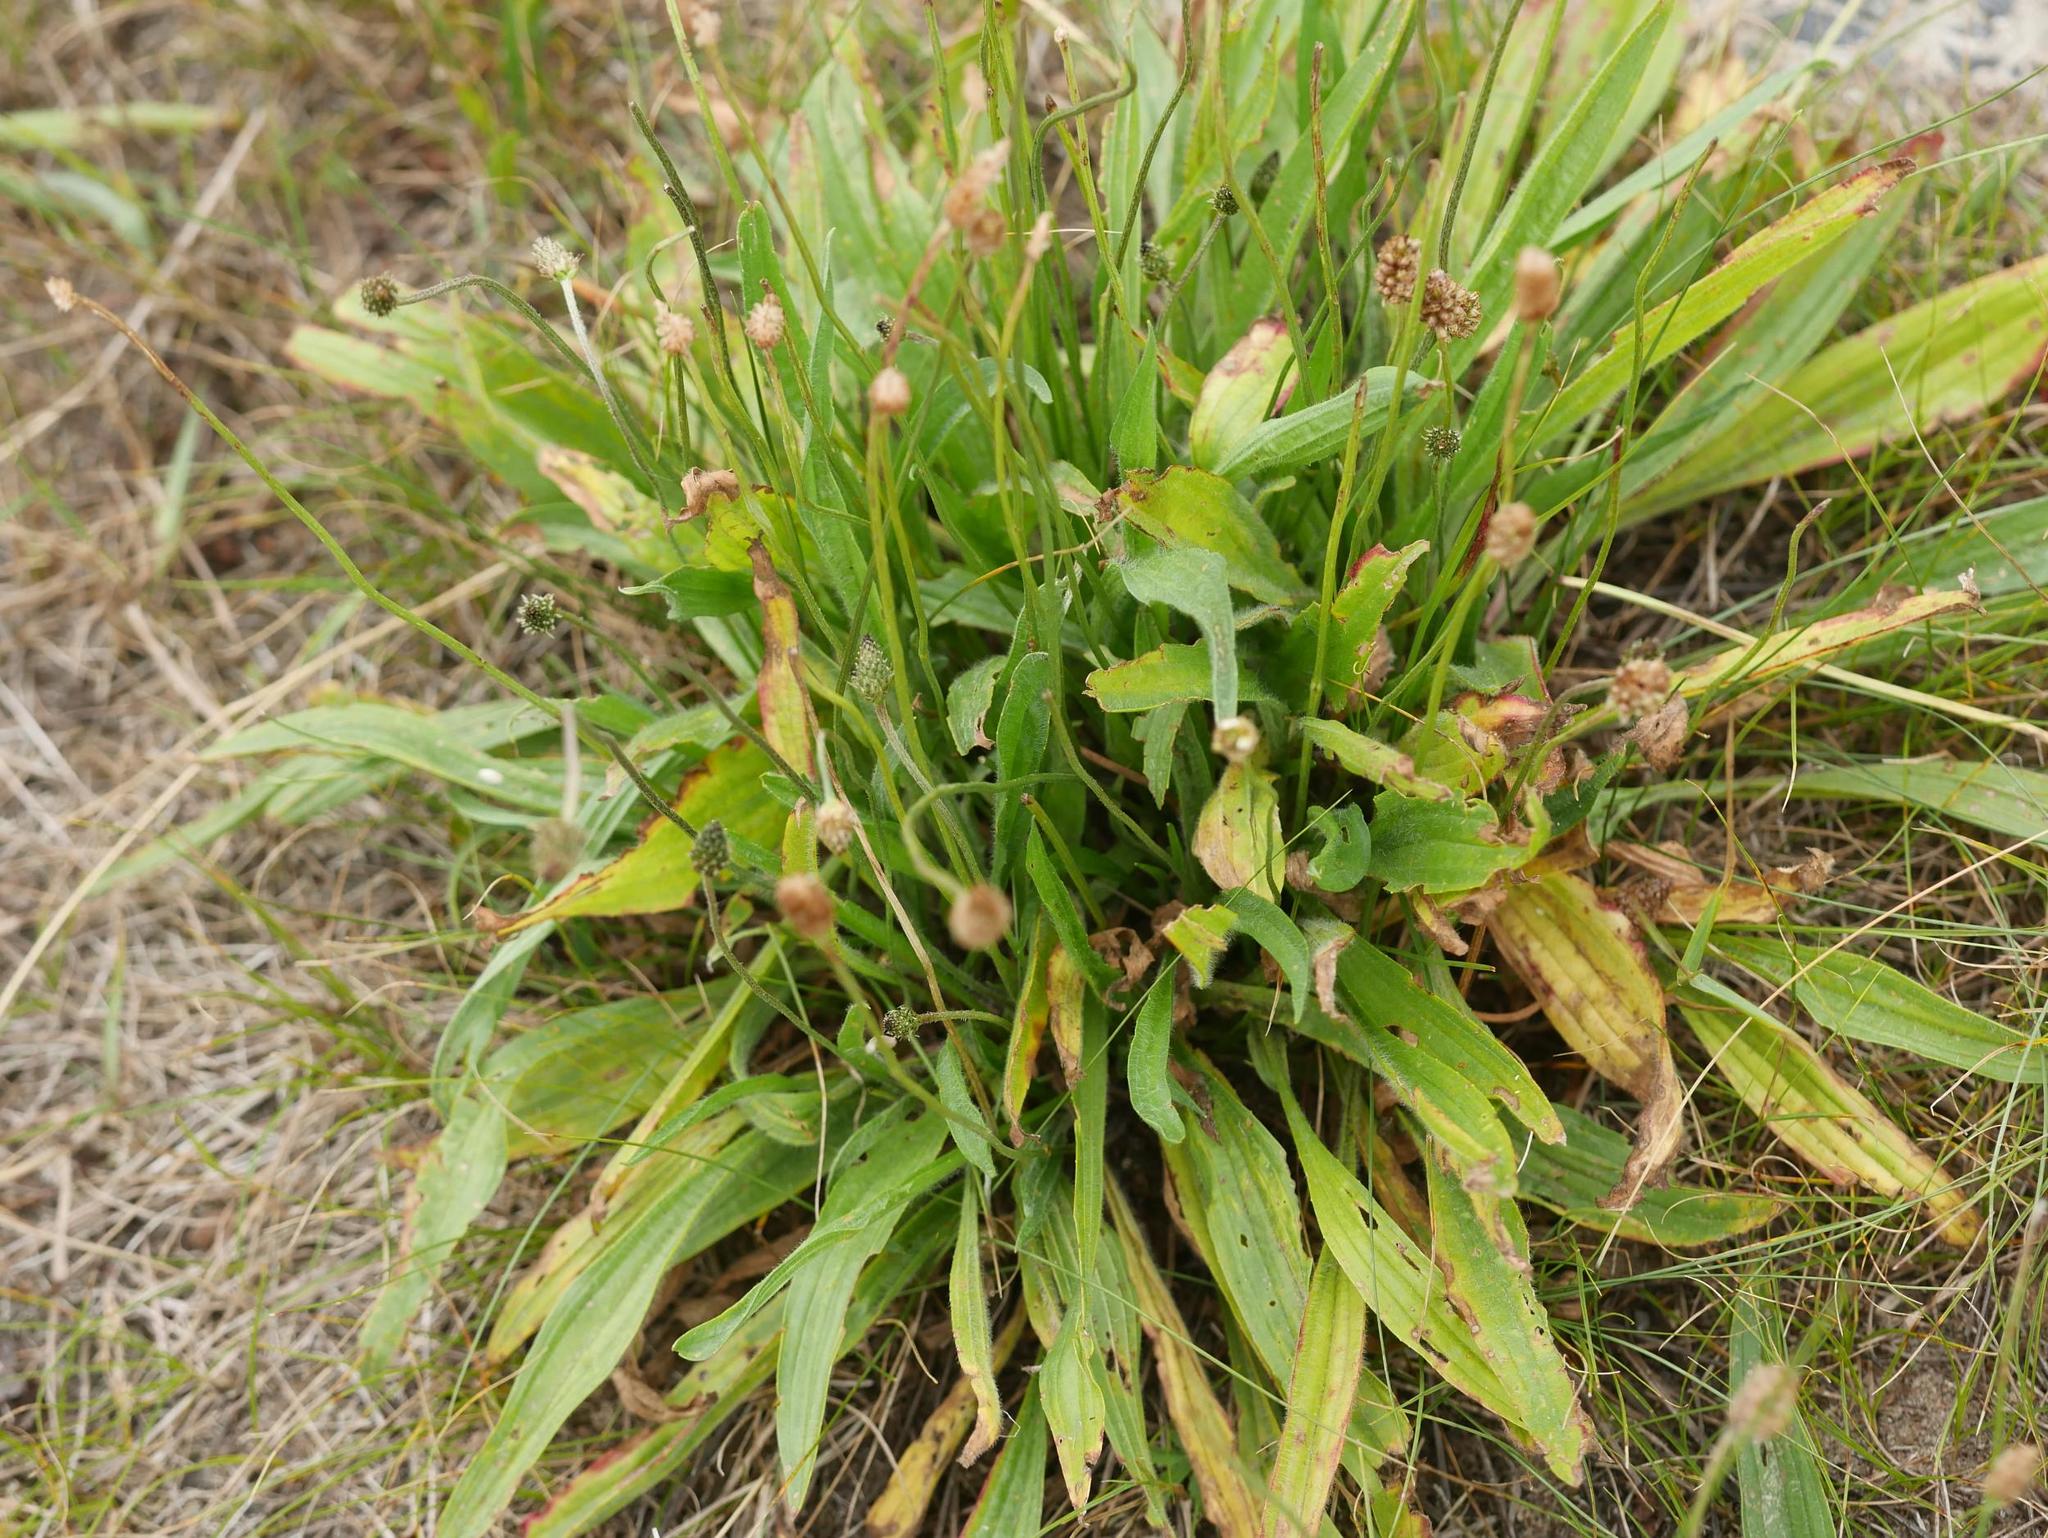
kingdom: Plantae
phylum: Tracheophyta
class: Magnoliopsida
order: Lamiales
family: Plantaginaceae
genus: Plantago
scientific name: Plantago lanceolata
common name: Ribwort plantain
